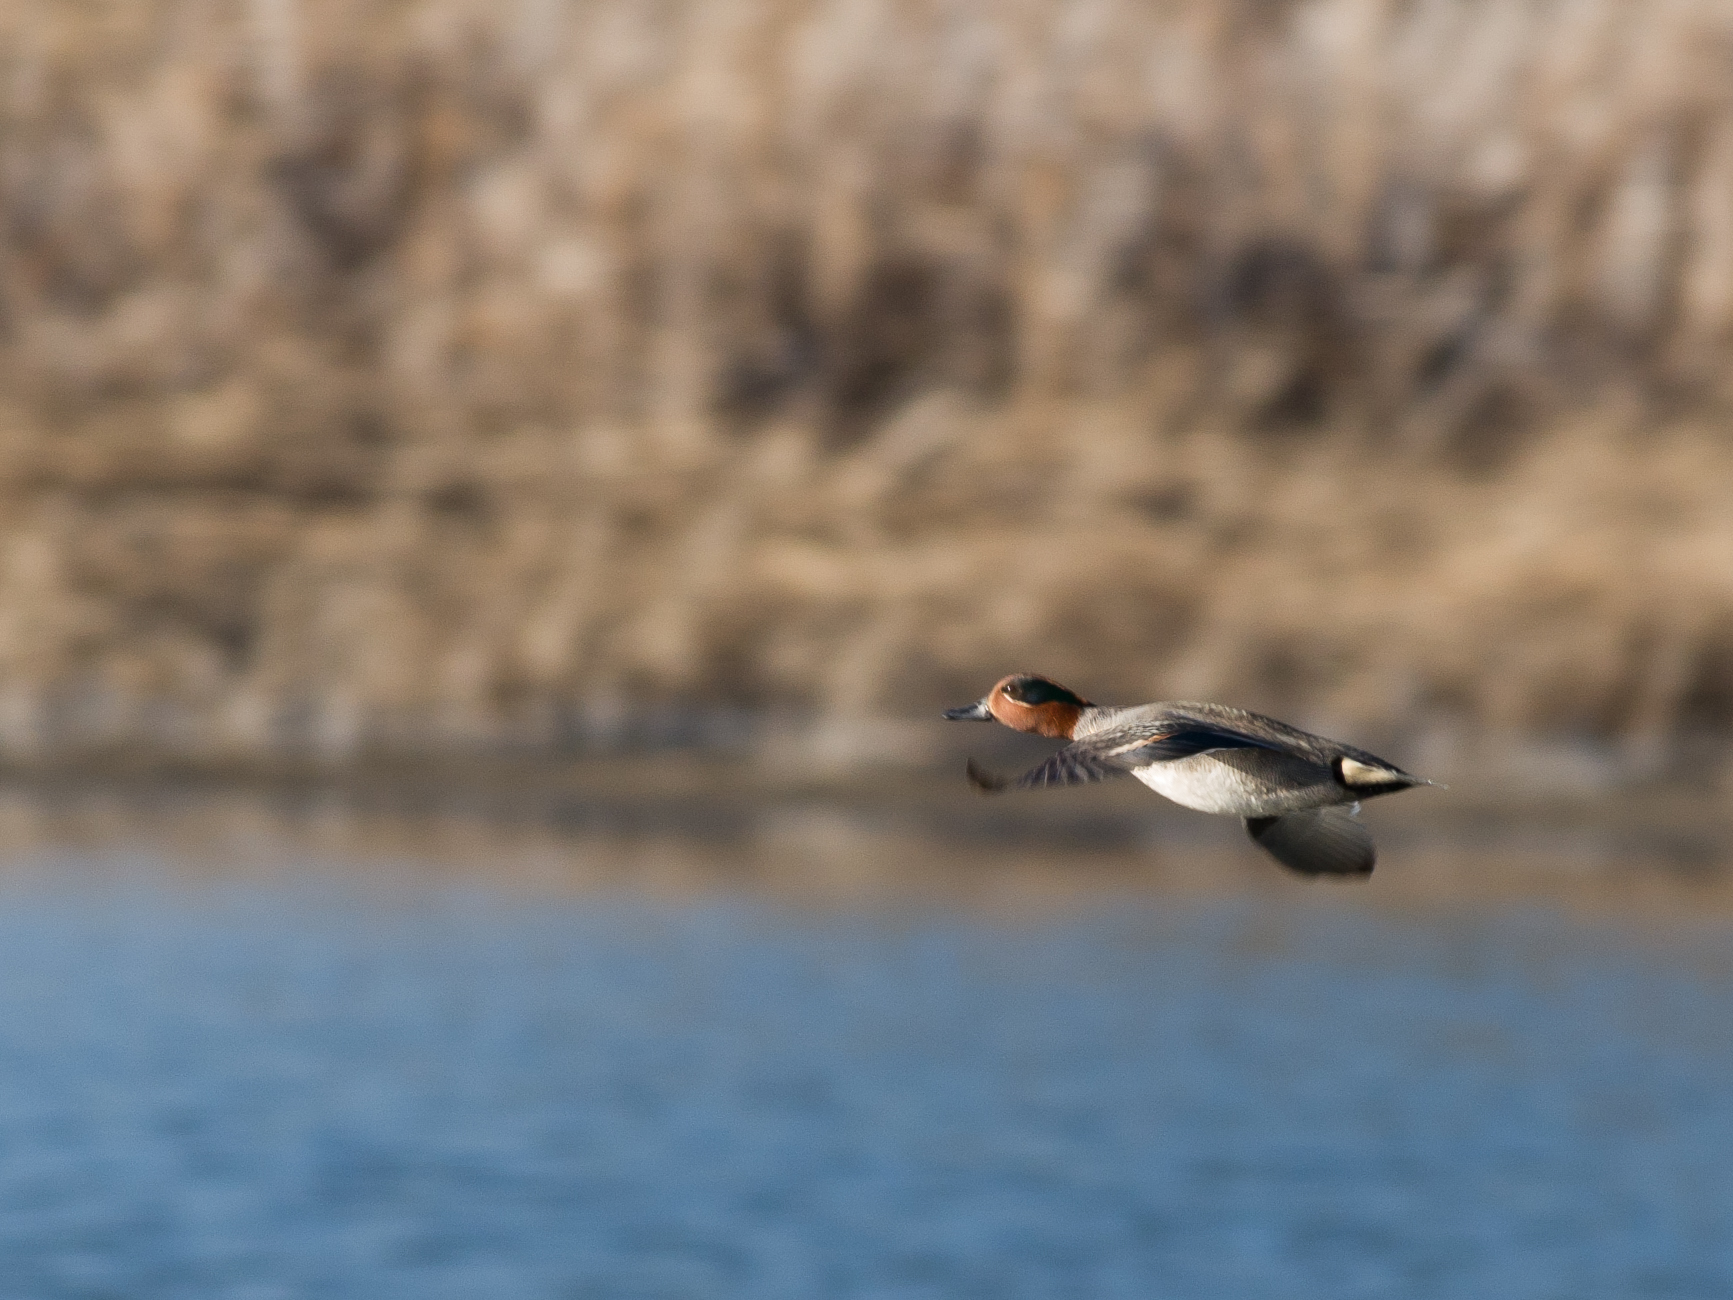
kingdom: Animalia
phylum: Chordata
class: Aves
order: Anseriformes
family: Anatidae
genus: Anas
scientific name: Anas crecca
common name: Eurasian teal
